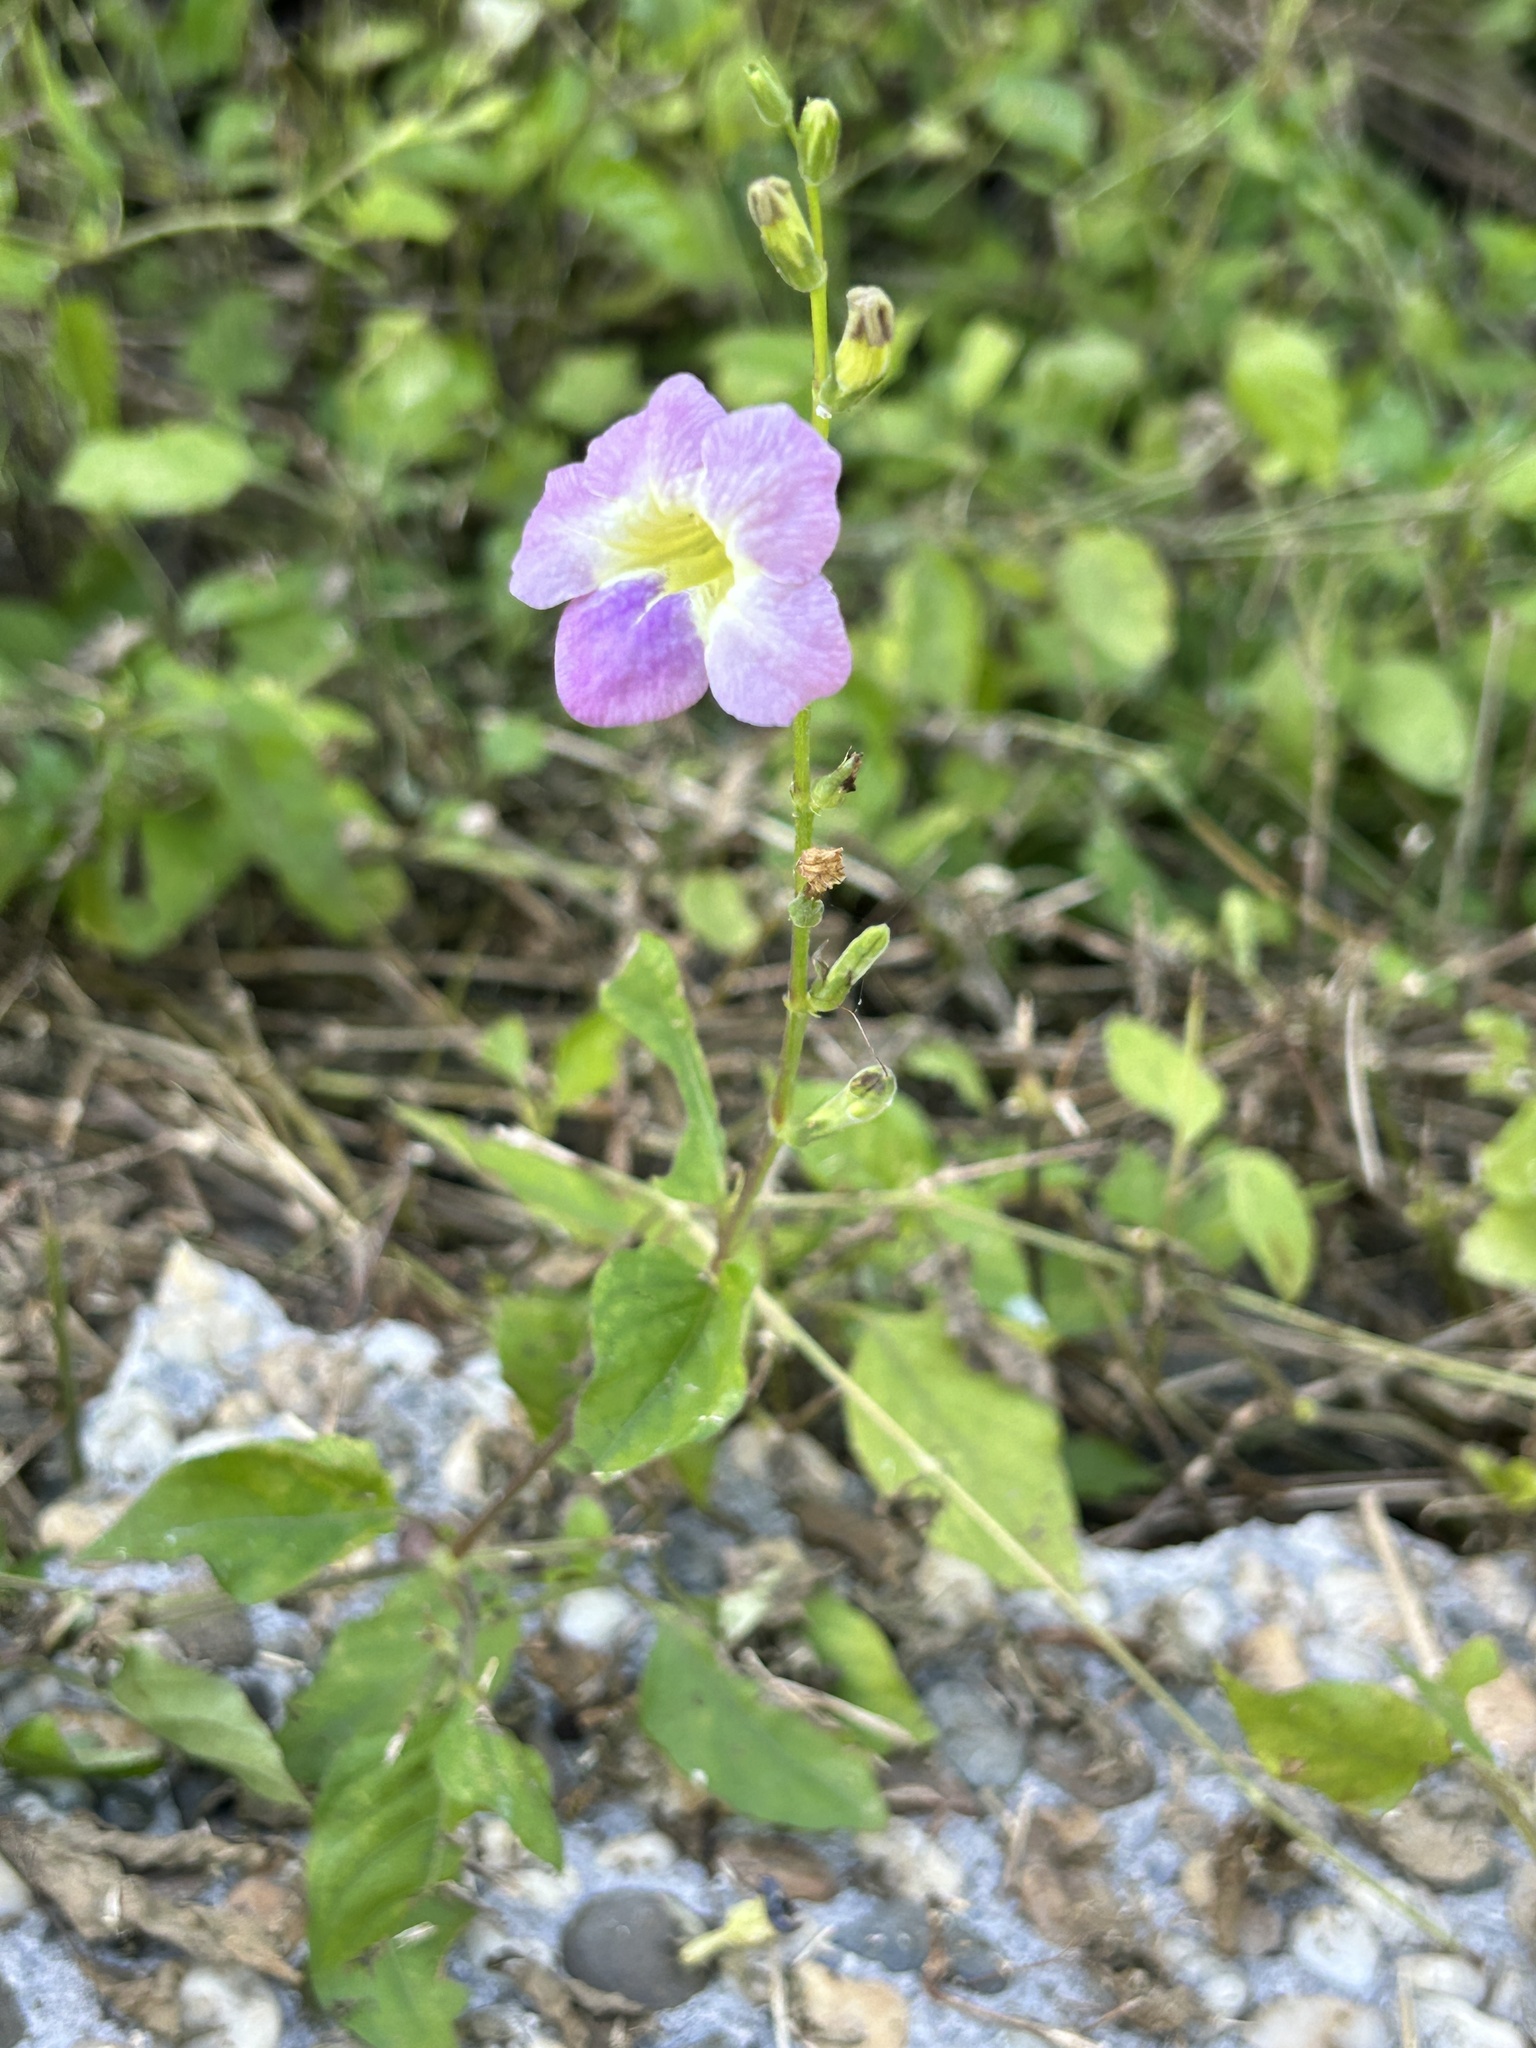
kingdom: Plantae
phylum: Tracheophyta
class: Magnoliopsida
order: Lamiales
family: Acanthaceae
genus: Asystasia
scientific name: Asystasia gangetica
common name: Chinese violet
